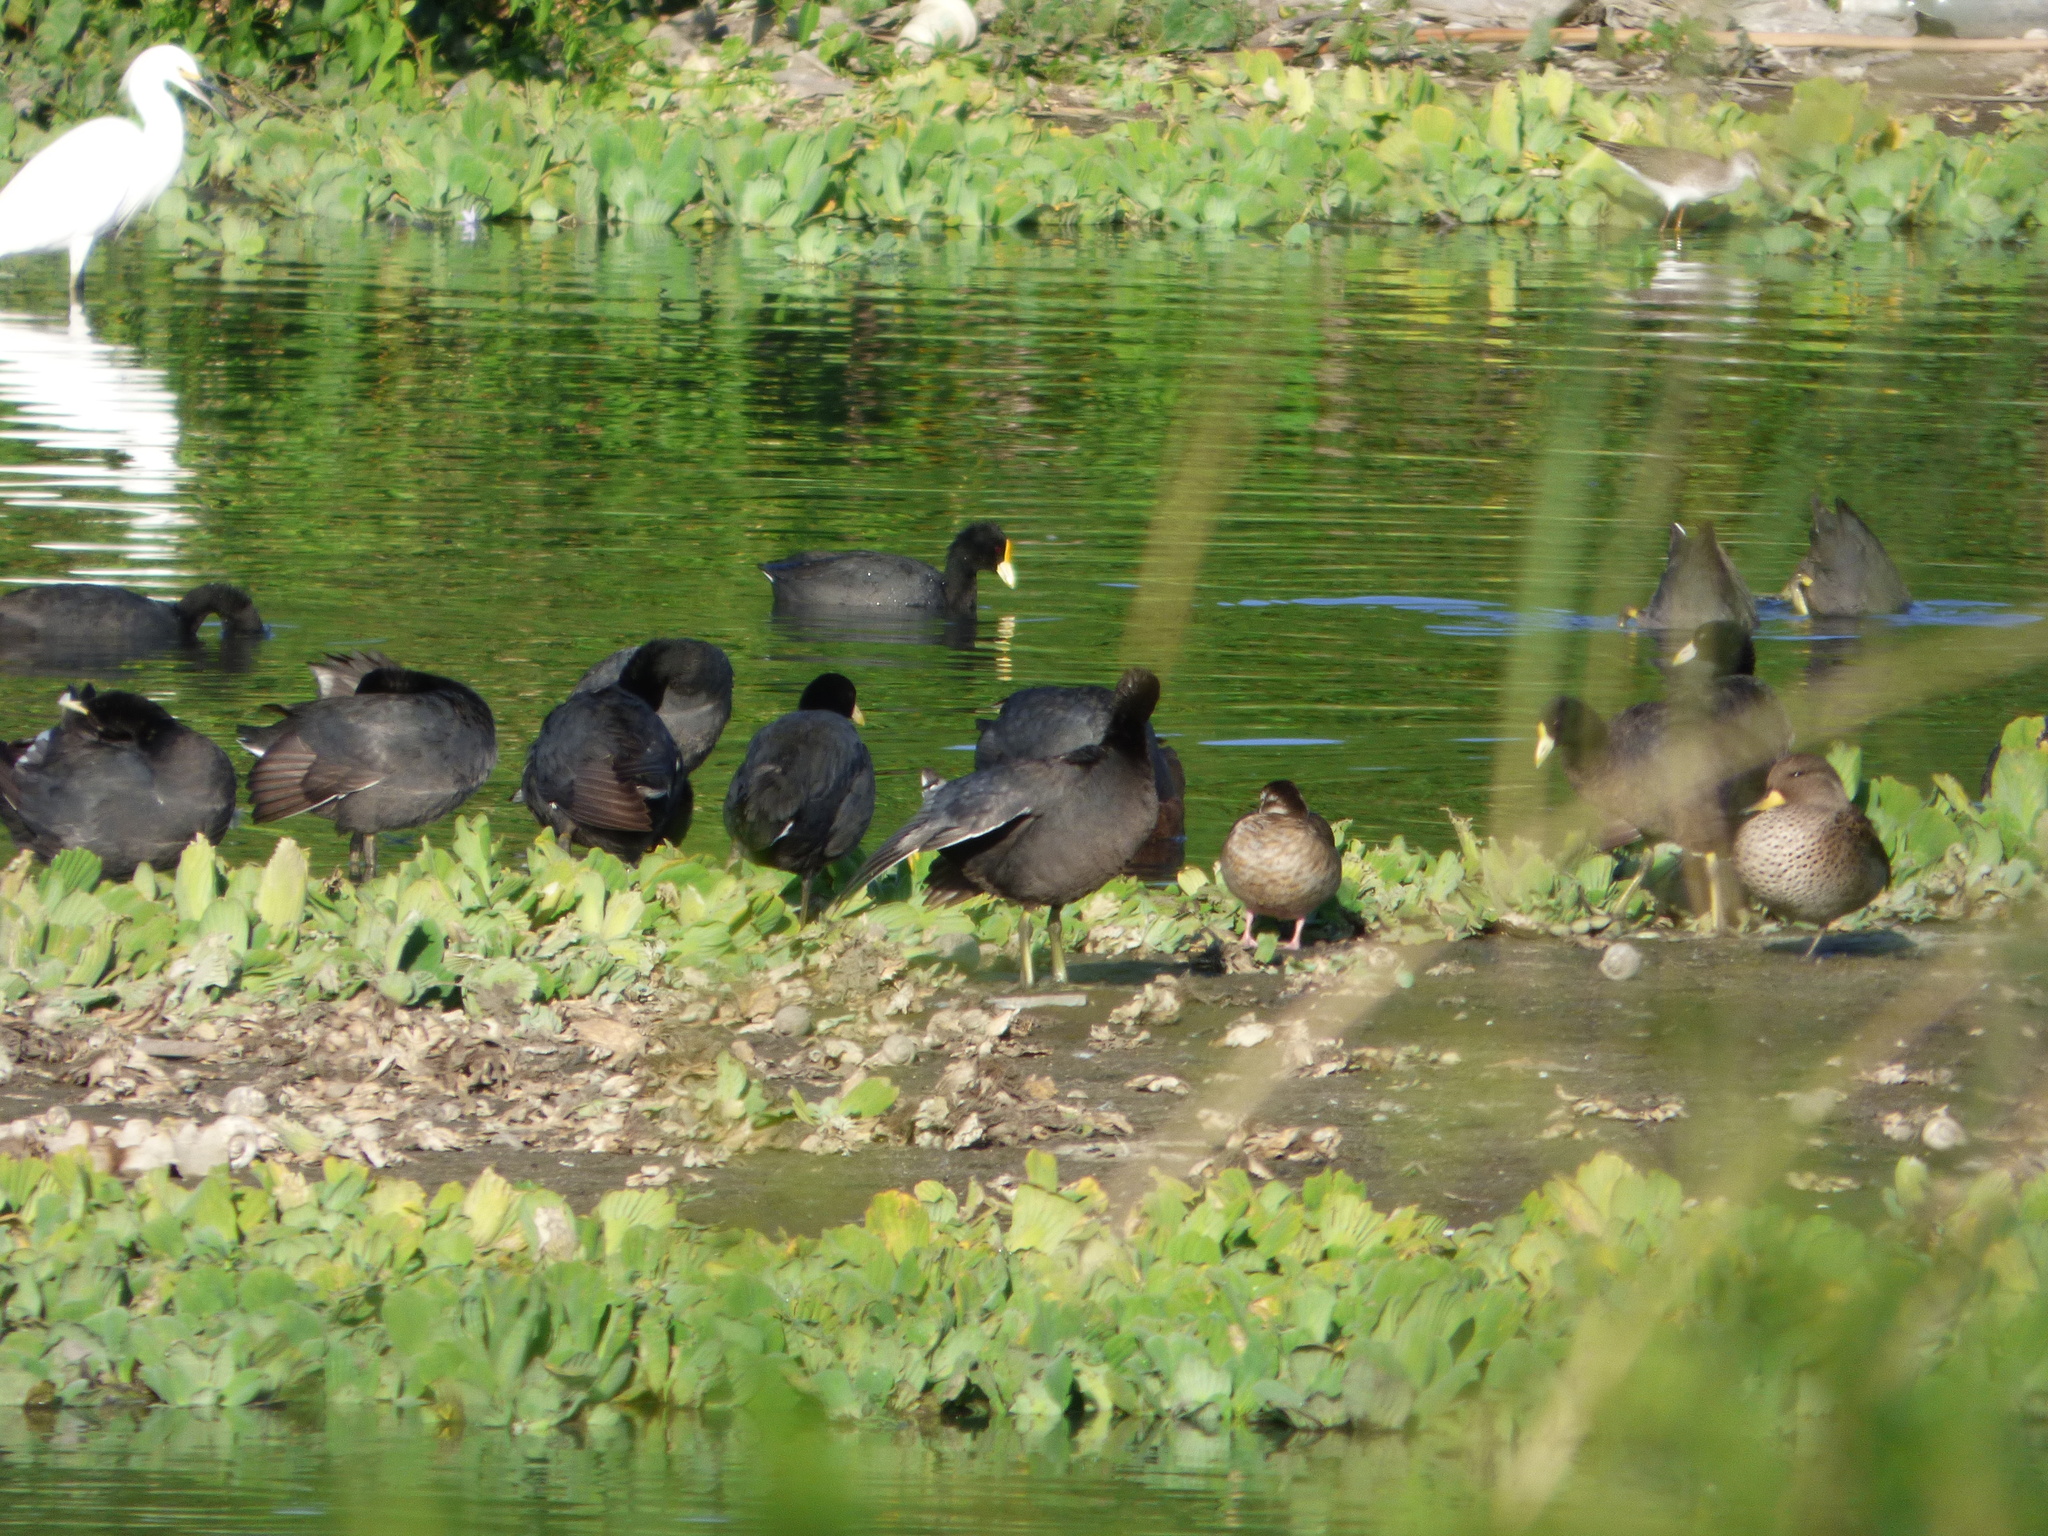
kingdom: Animalia
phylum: Chordata
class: Aves
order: Gruiformes
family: Rallidae
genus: Fulica
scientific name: Fulica leucoptera
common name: White-winged coot
